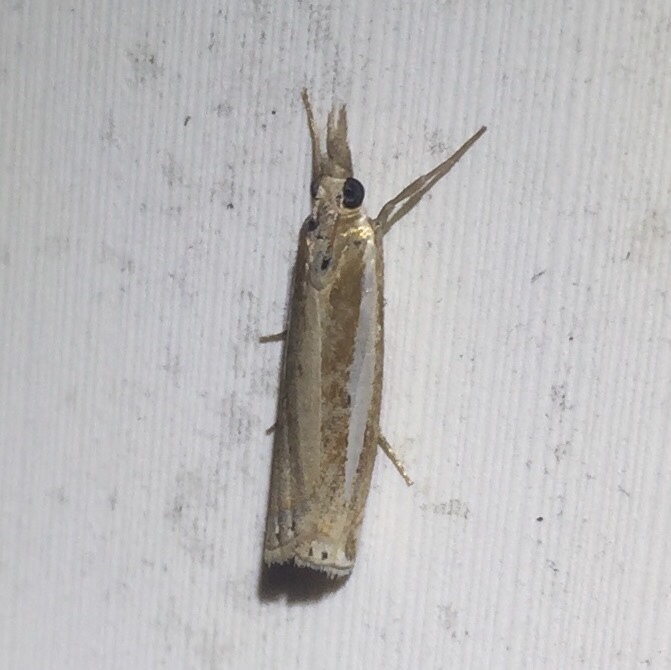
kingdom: Animalia
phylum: Arthropoda
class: Insecta
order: Lepidoptera
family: Crambidae
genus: Crambus
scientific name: Crambus praefectellus
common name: Common grass-veneer
